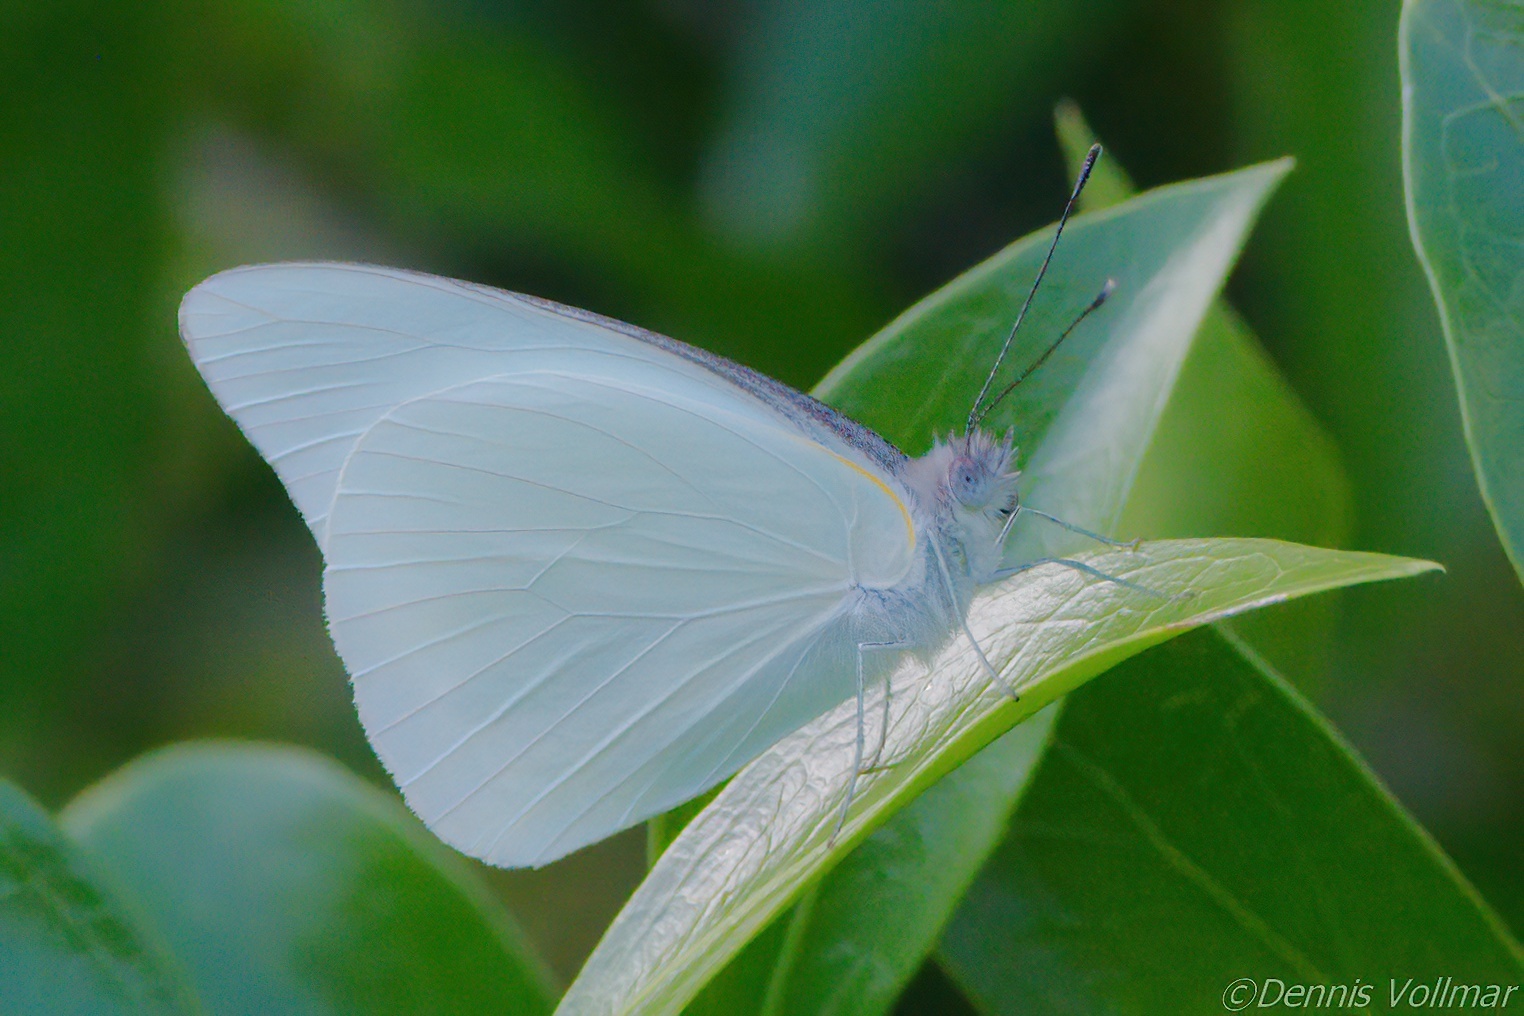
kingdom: Animalia
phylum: Arthropoda
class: Insecta
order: Lepidoptera
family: Pieridae
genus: Glutophrissa
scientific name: Glutophrissa drusilla
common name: Florida white
